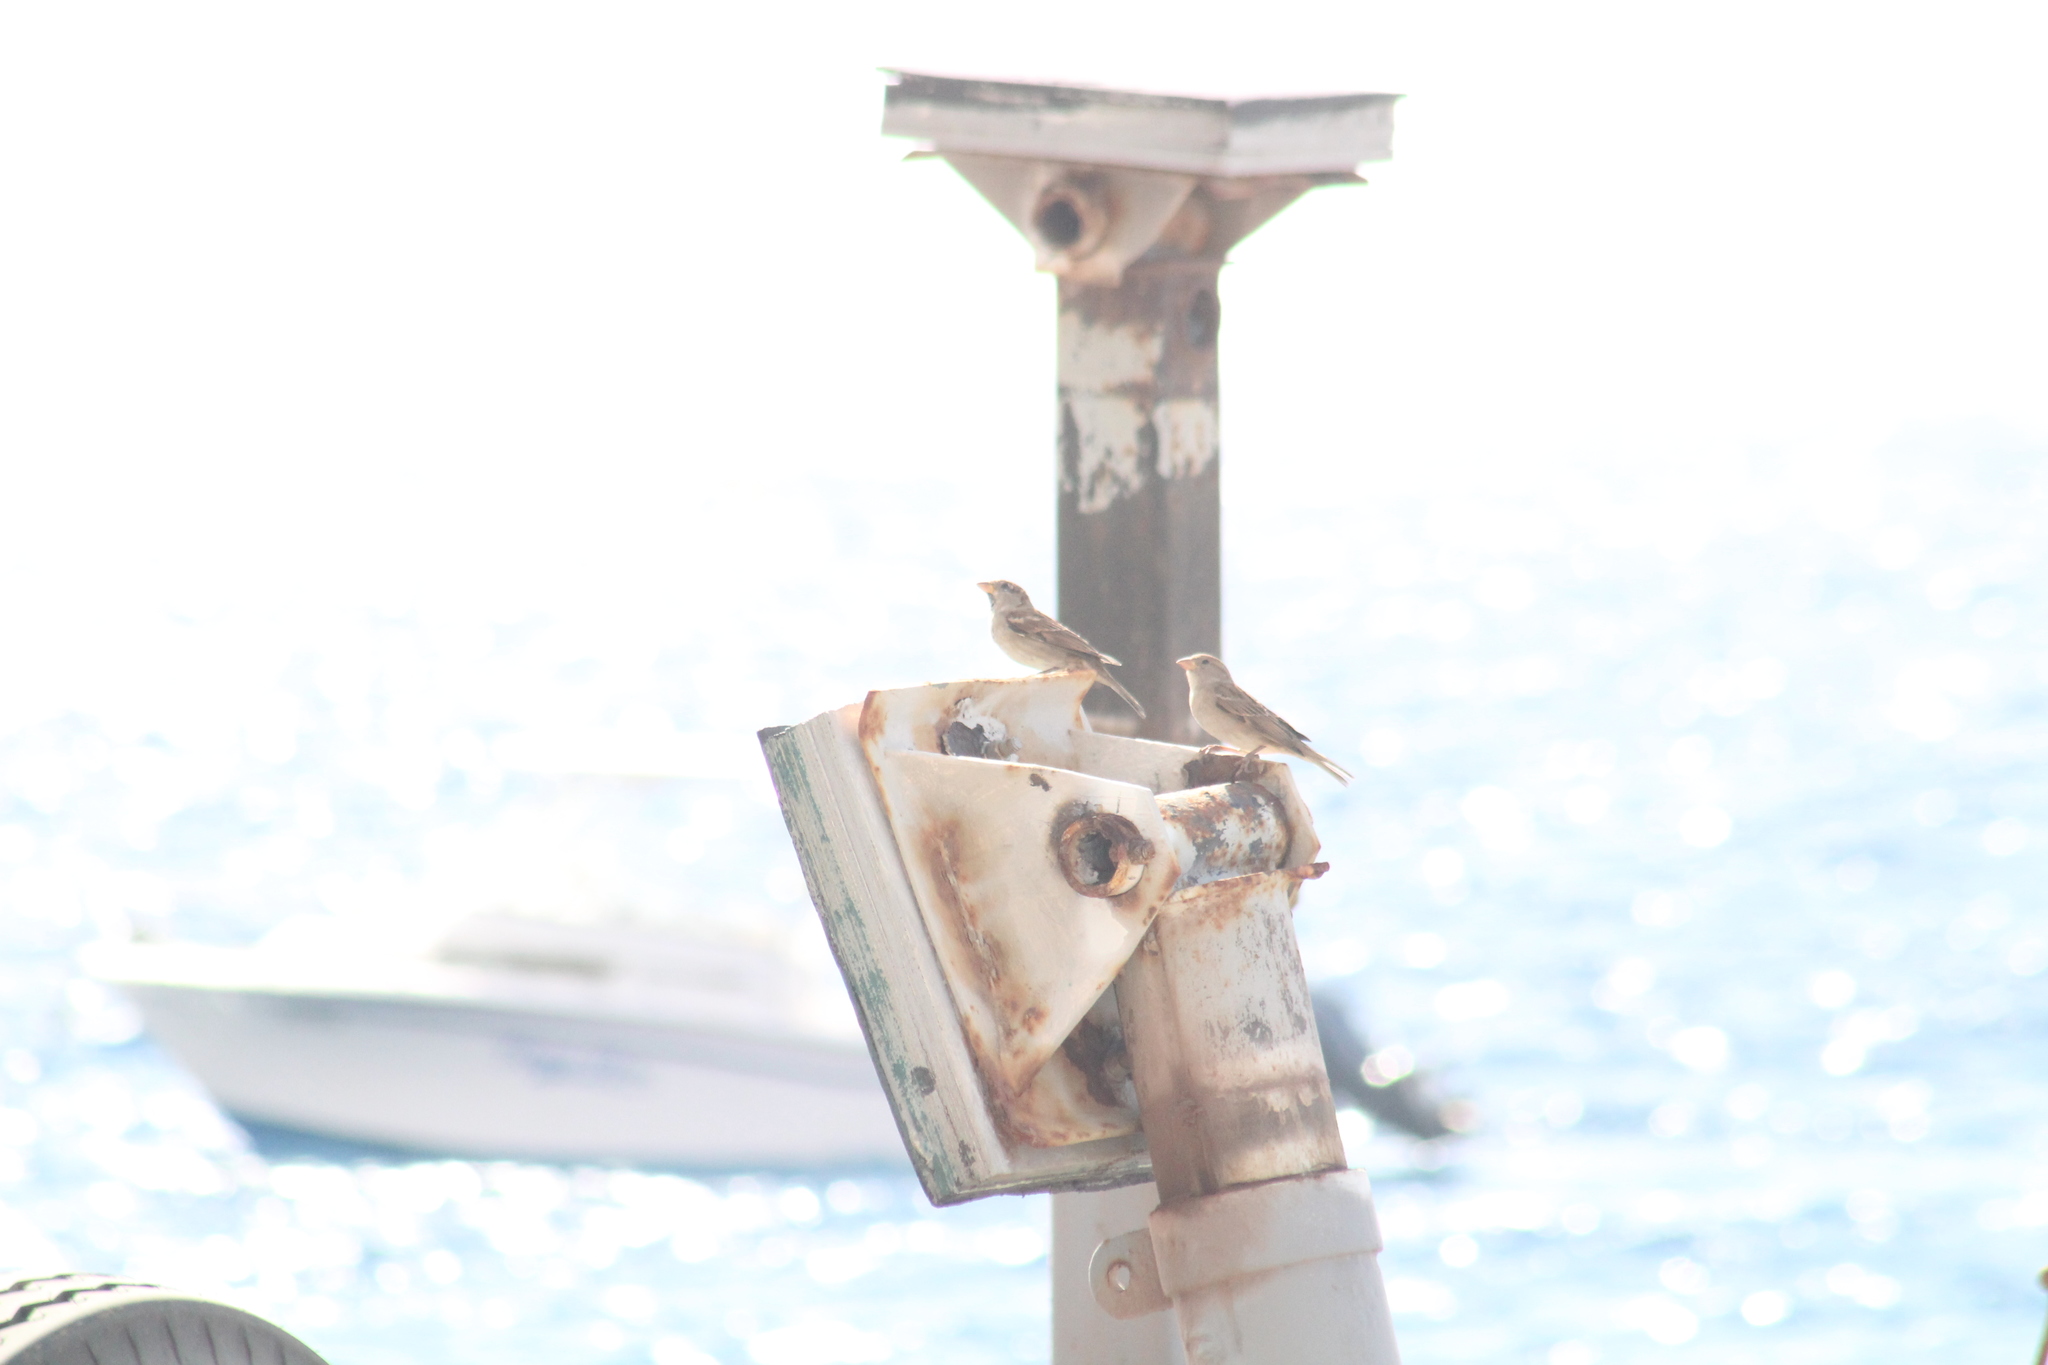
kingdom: Animalia
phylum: Chordata
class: Aves
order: Passeriformes
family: Passeridae
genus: Passer
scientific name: Passer domesticus
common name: House sparrow
